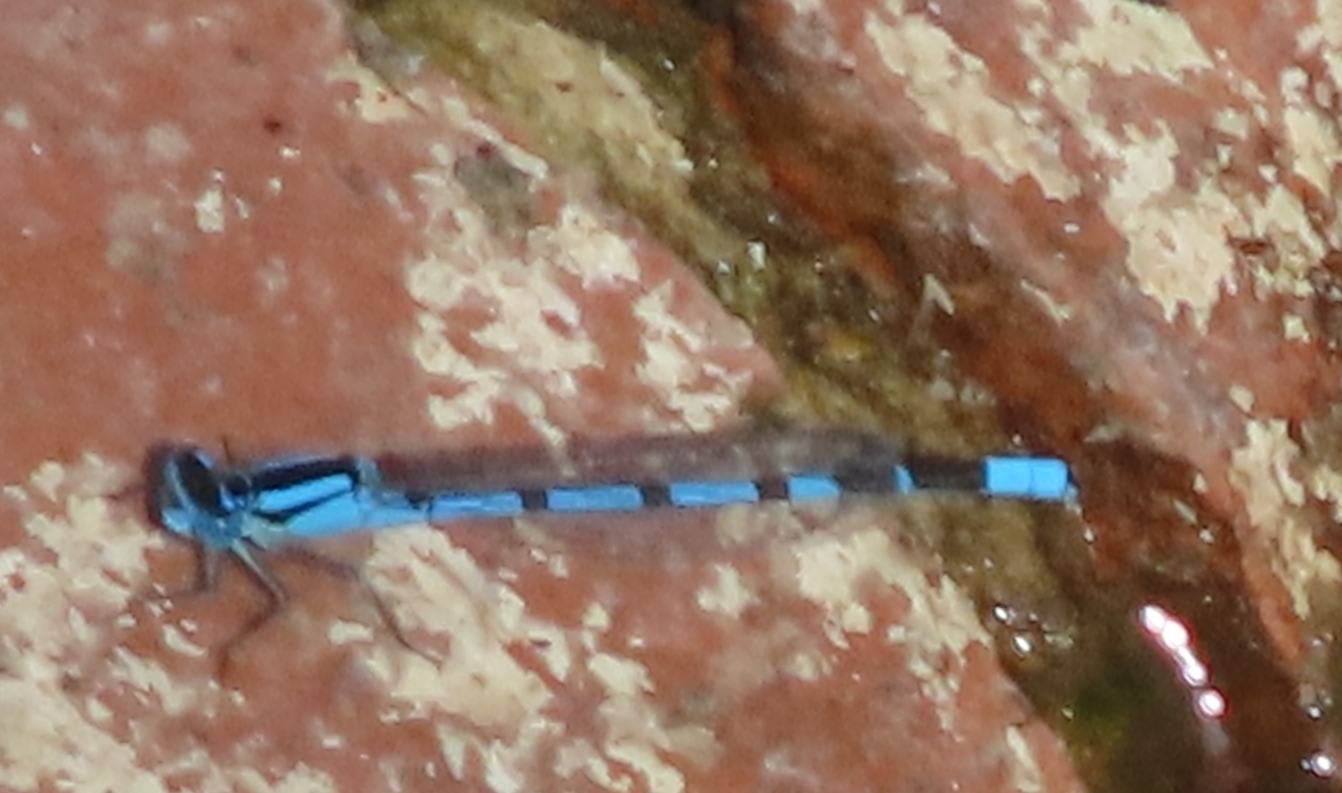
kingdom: Animalia
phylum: Arthropoda
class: Insecta
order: Odonata
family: Coenagrionidae
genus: Enallagma
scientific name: Enallagma cyathigerum
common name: Common blue damselfly
